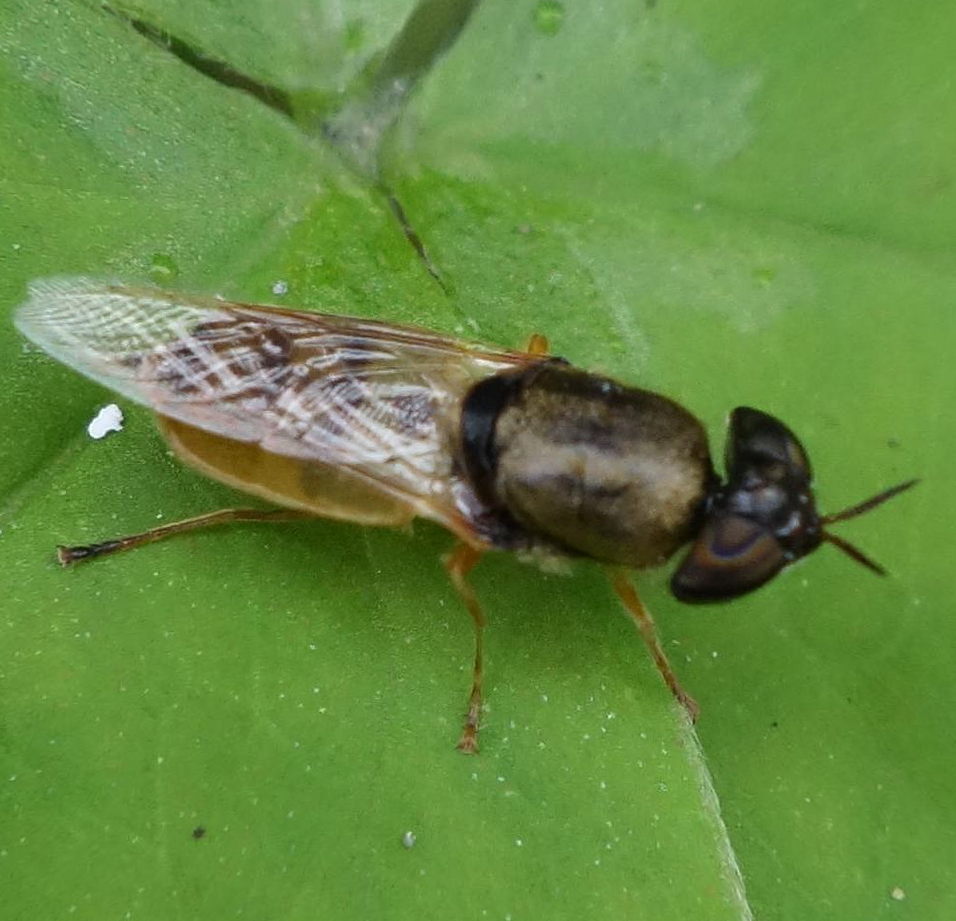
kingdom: Animalia
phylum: Arthropoda
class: Insecta
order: Diptera
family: Stratiomyidae
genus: Odontomyia
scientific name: Odontomyia lutatius
